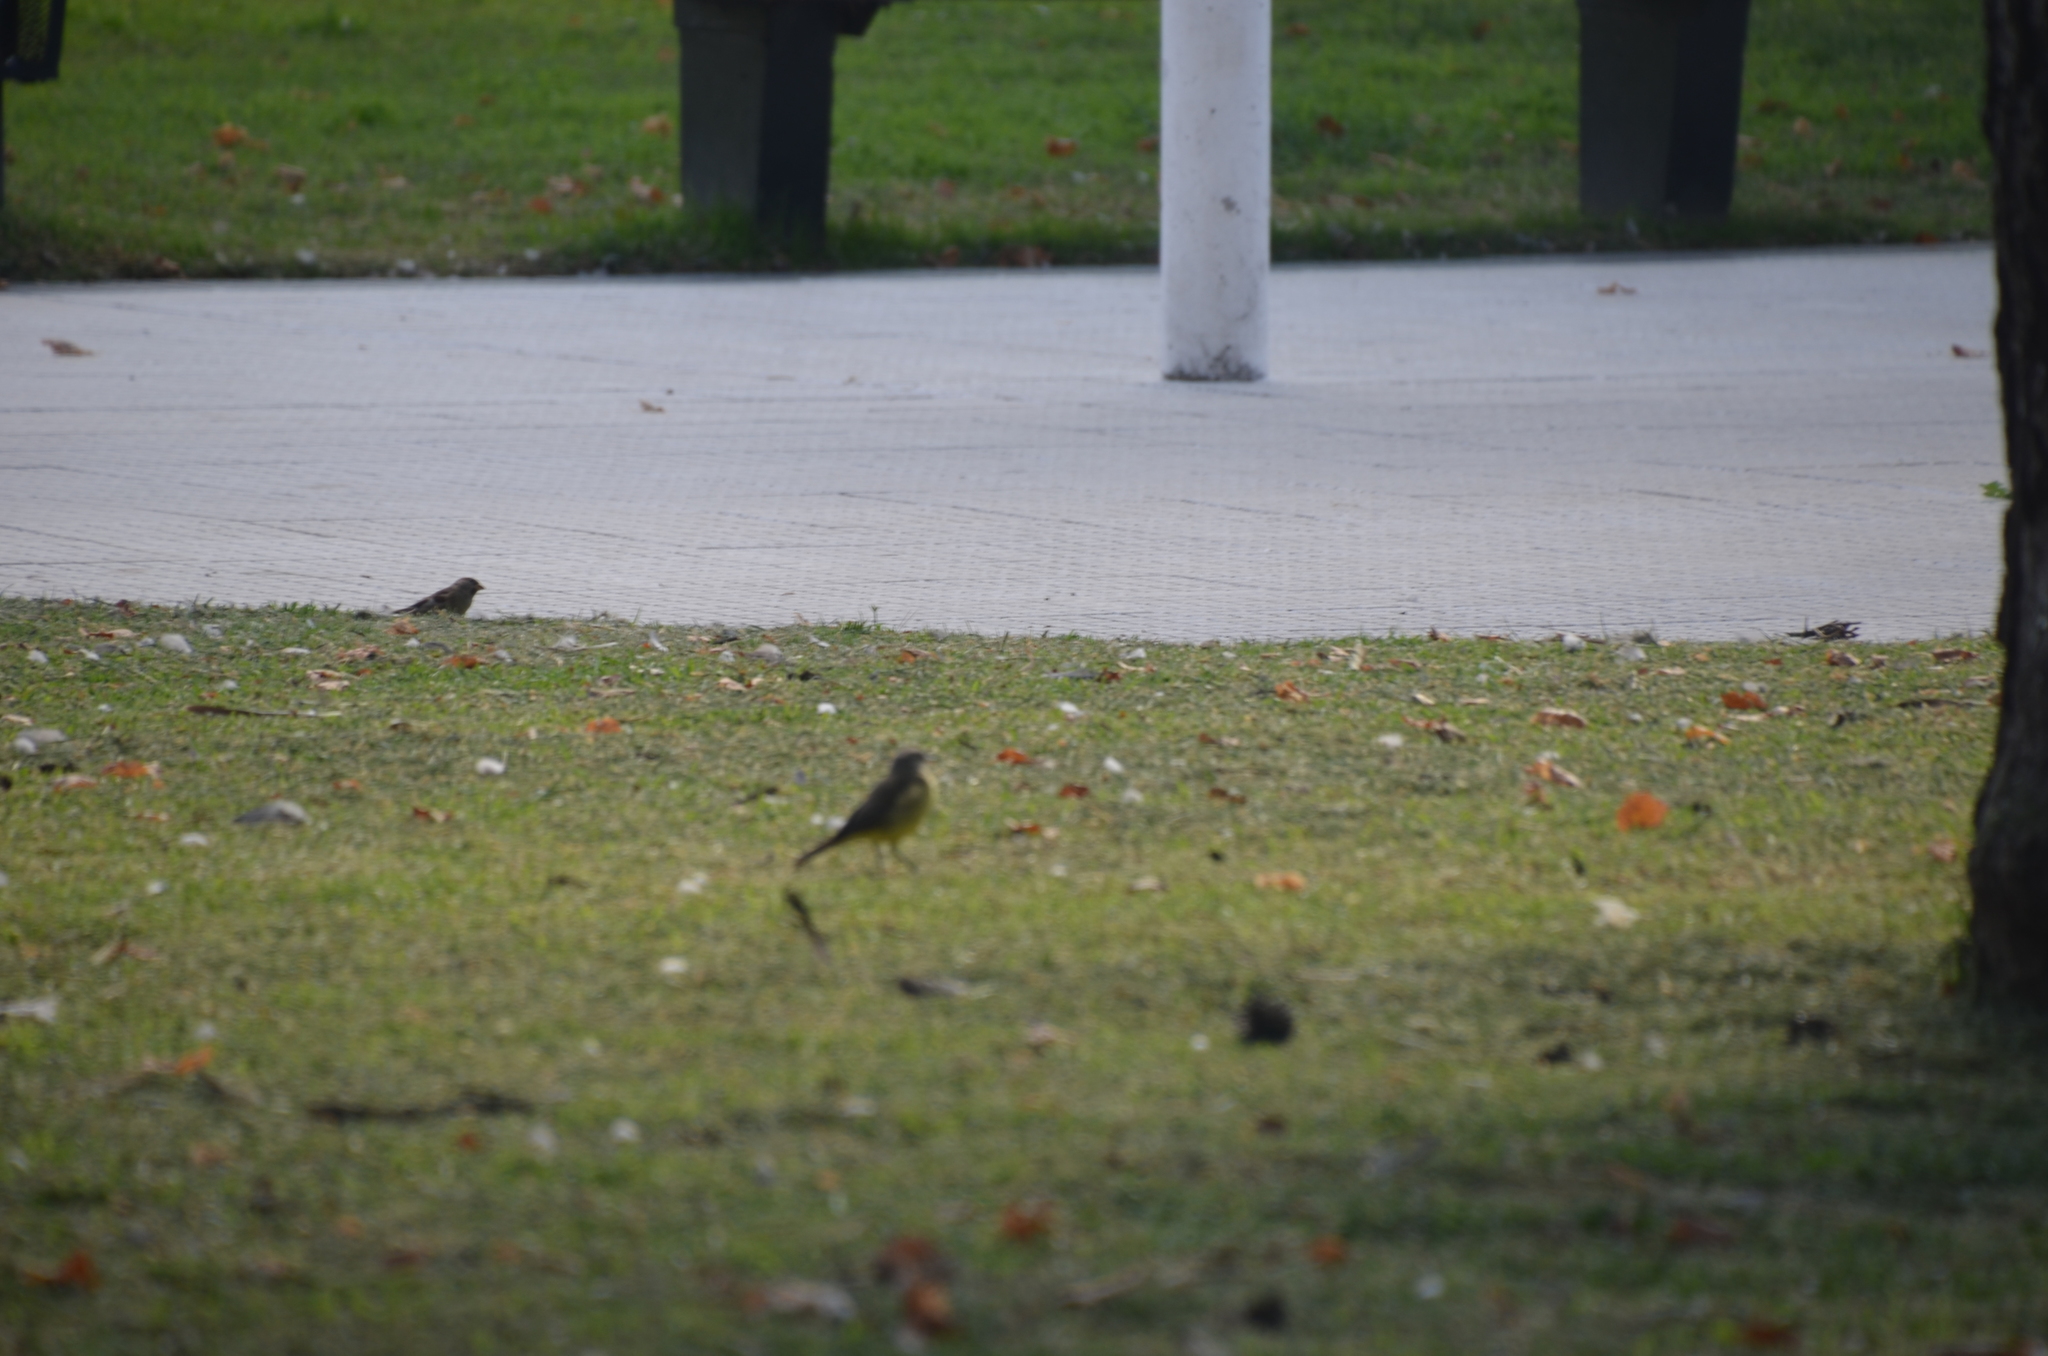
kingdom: Animalia
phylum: Chordata
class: Aves
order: Passeriformes
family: Passeridae
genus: Passer
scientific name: Passer domesticus
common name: House sparrow
